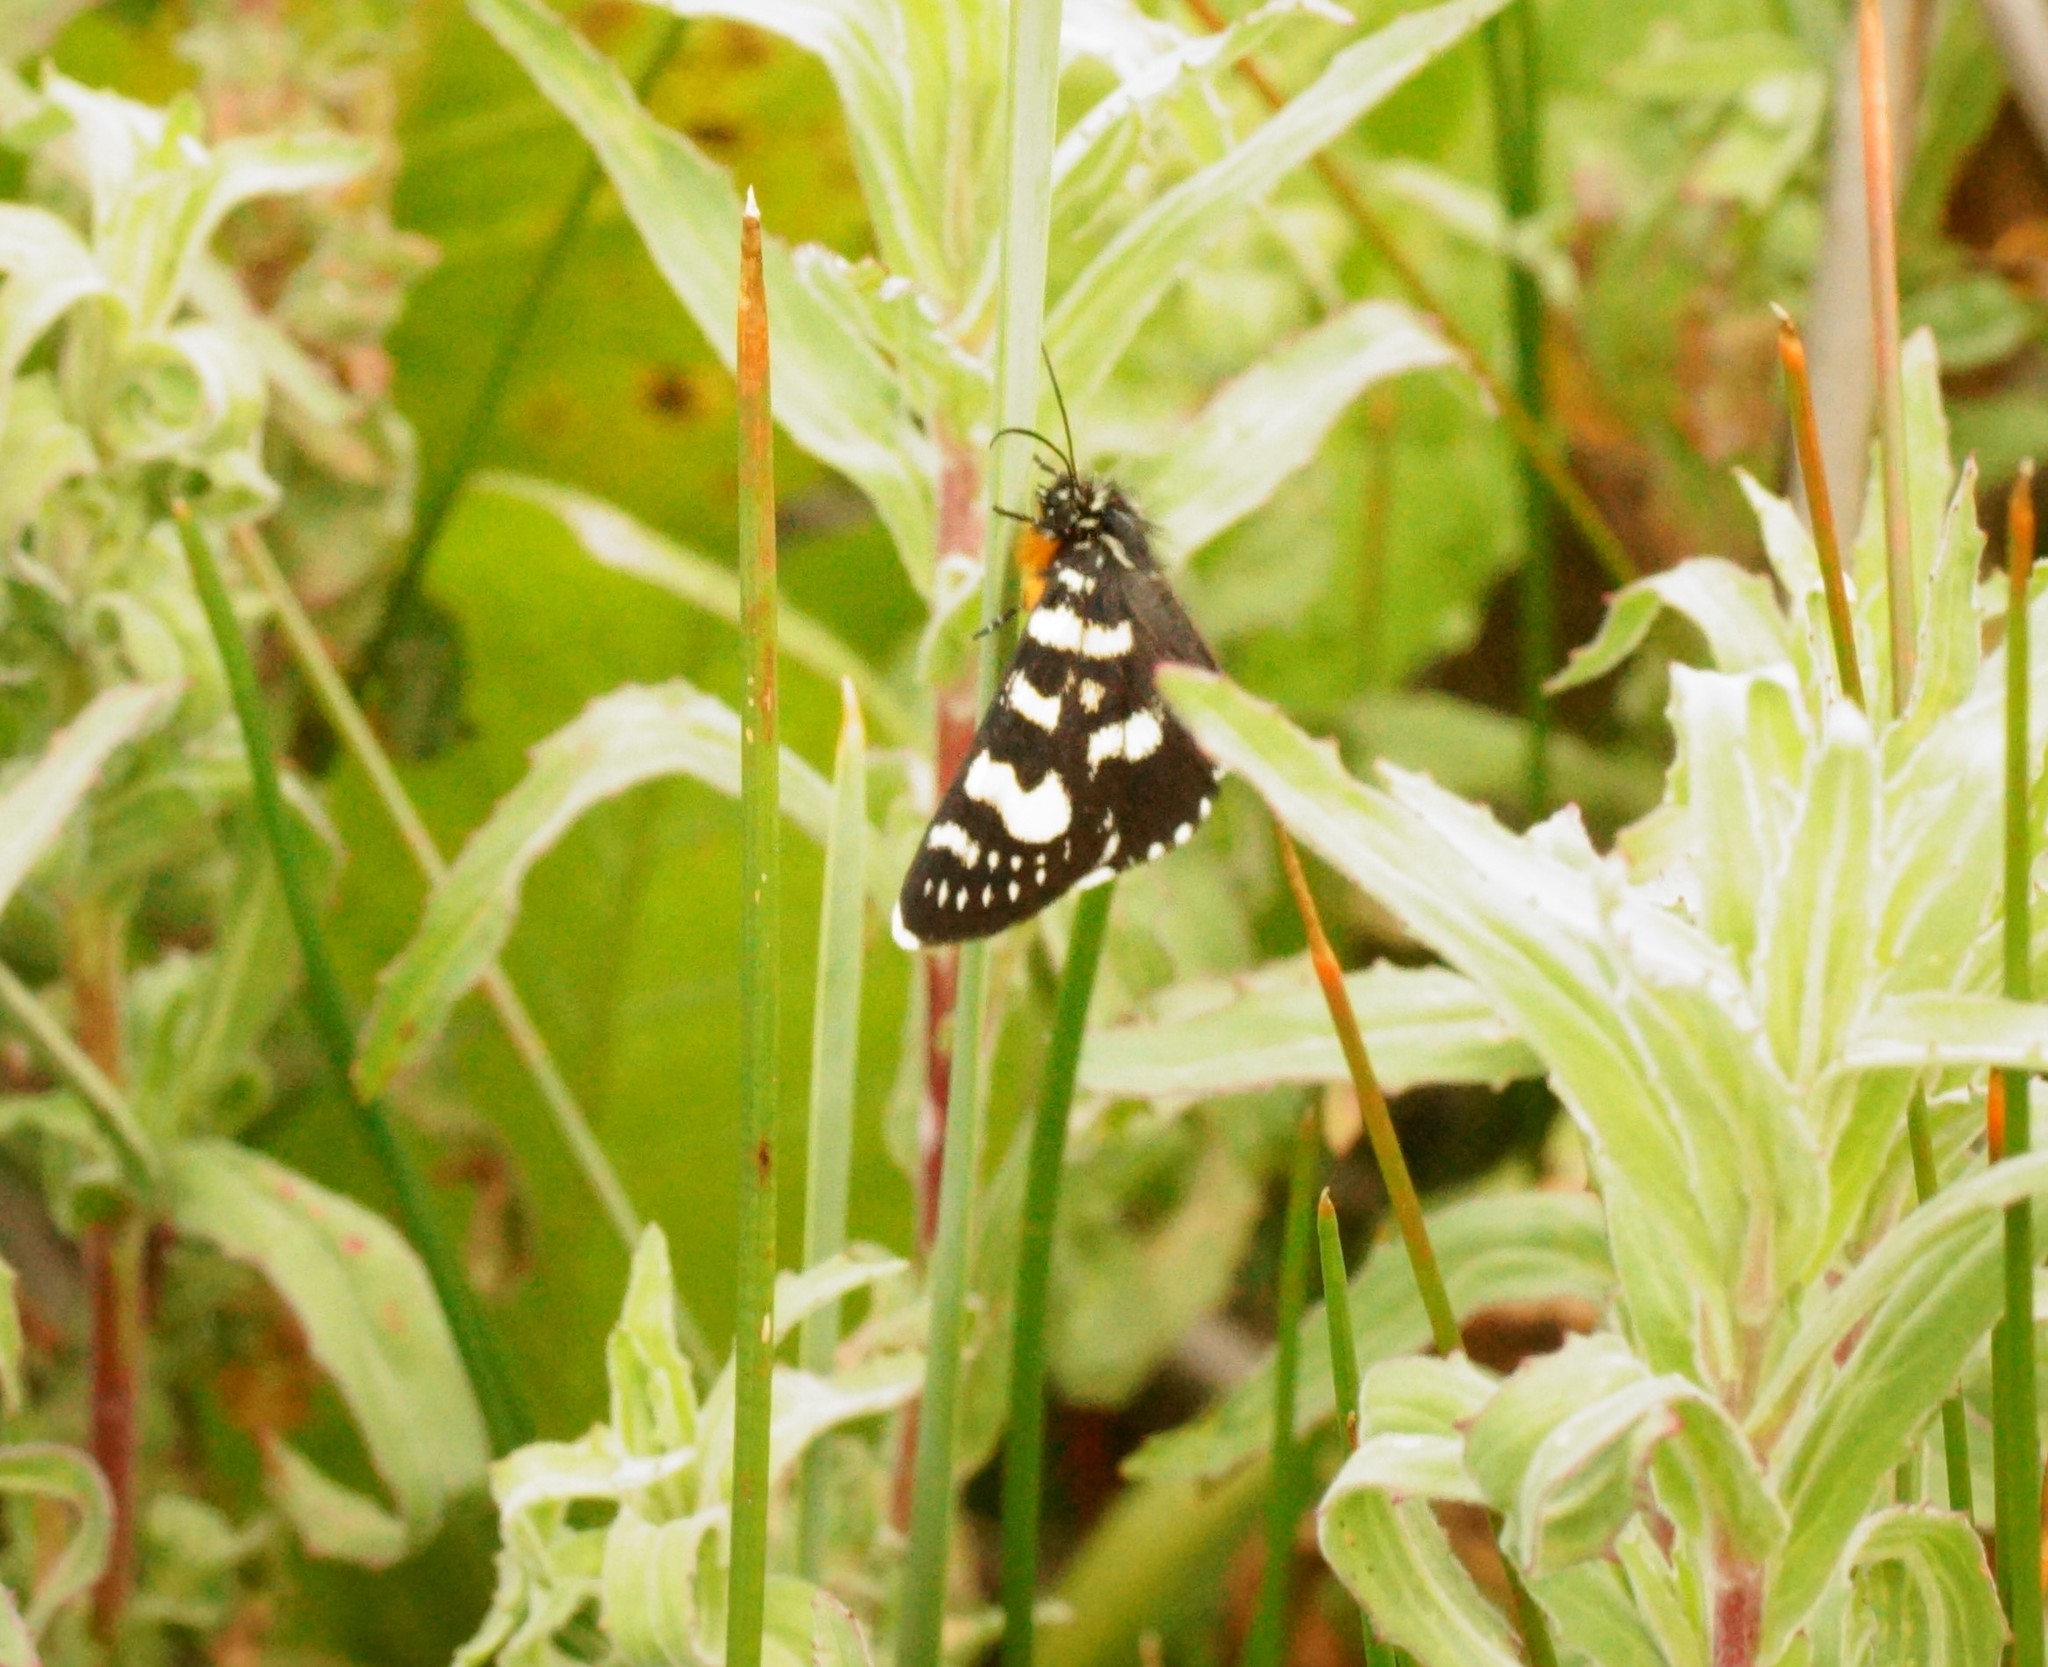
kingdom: Animalia
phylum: Arthropoda
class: Insecta
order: Lepidoptera
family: Noctuidae
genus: Phalaenoides
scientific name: Phalaenoides tristifica
